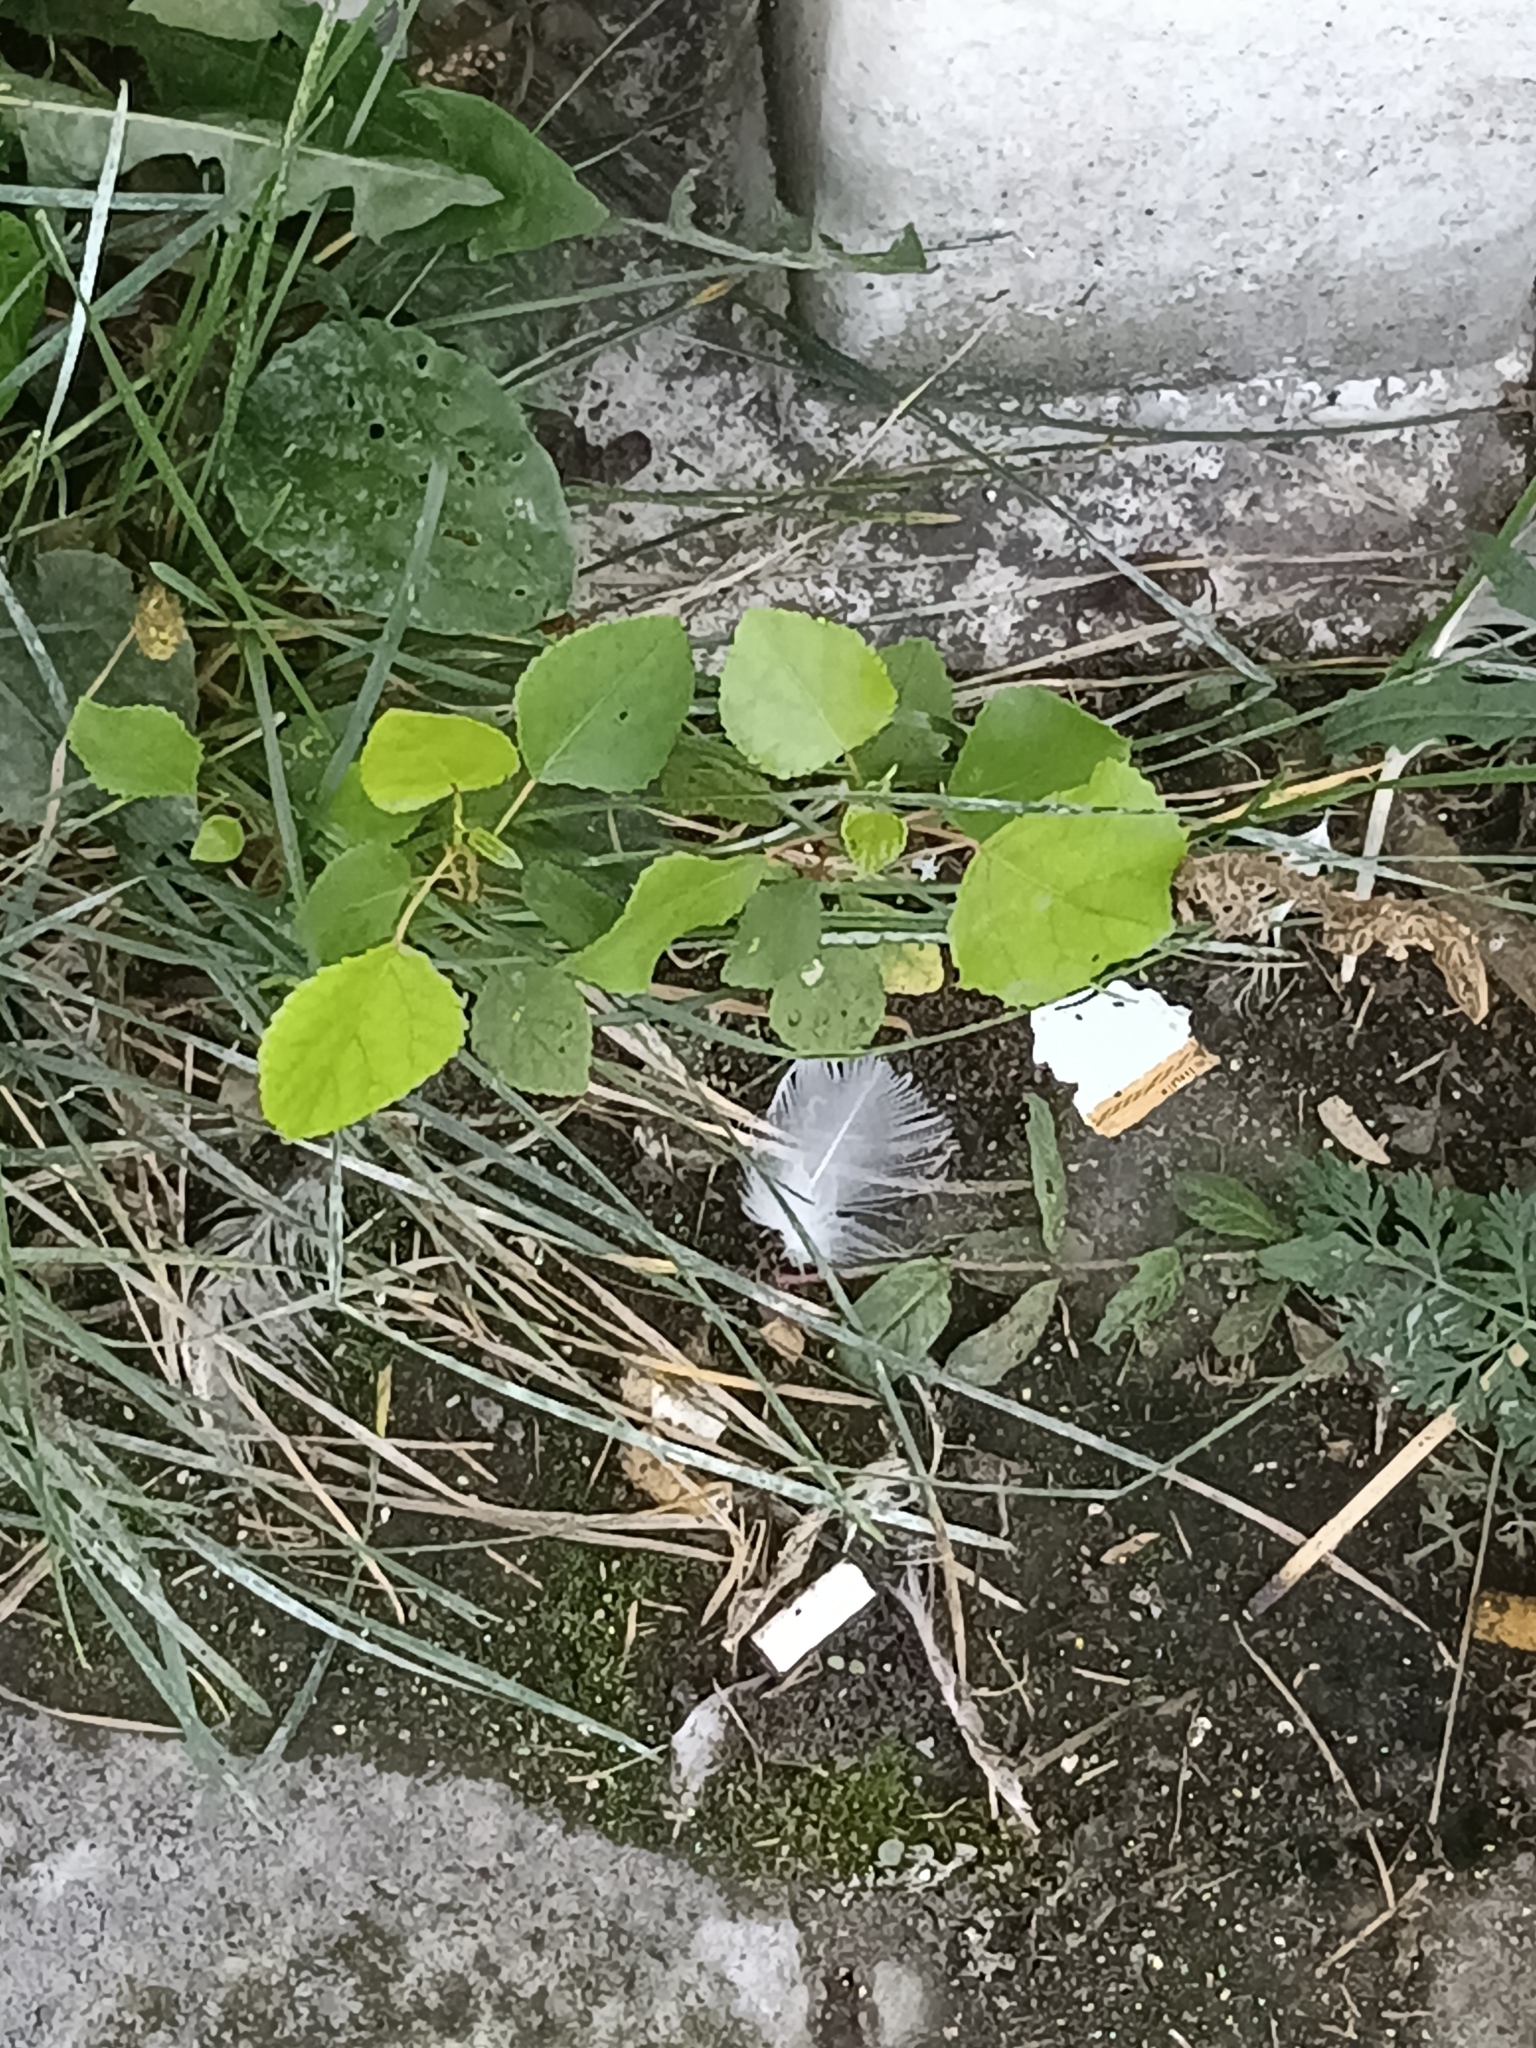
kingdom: Plantae
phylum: Tracheophyta
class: Magnoliopsida
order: Malpighiales
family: Salicaceae
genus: Populus
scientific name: Populus deltoides
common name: Eastern cottonwood
